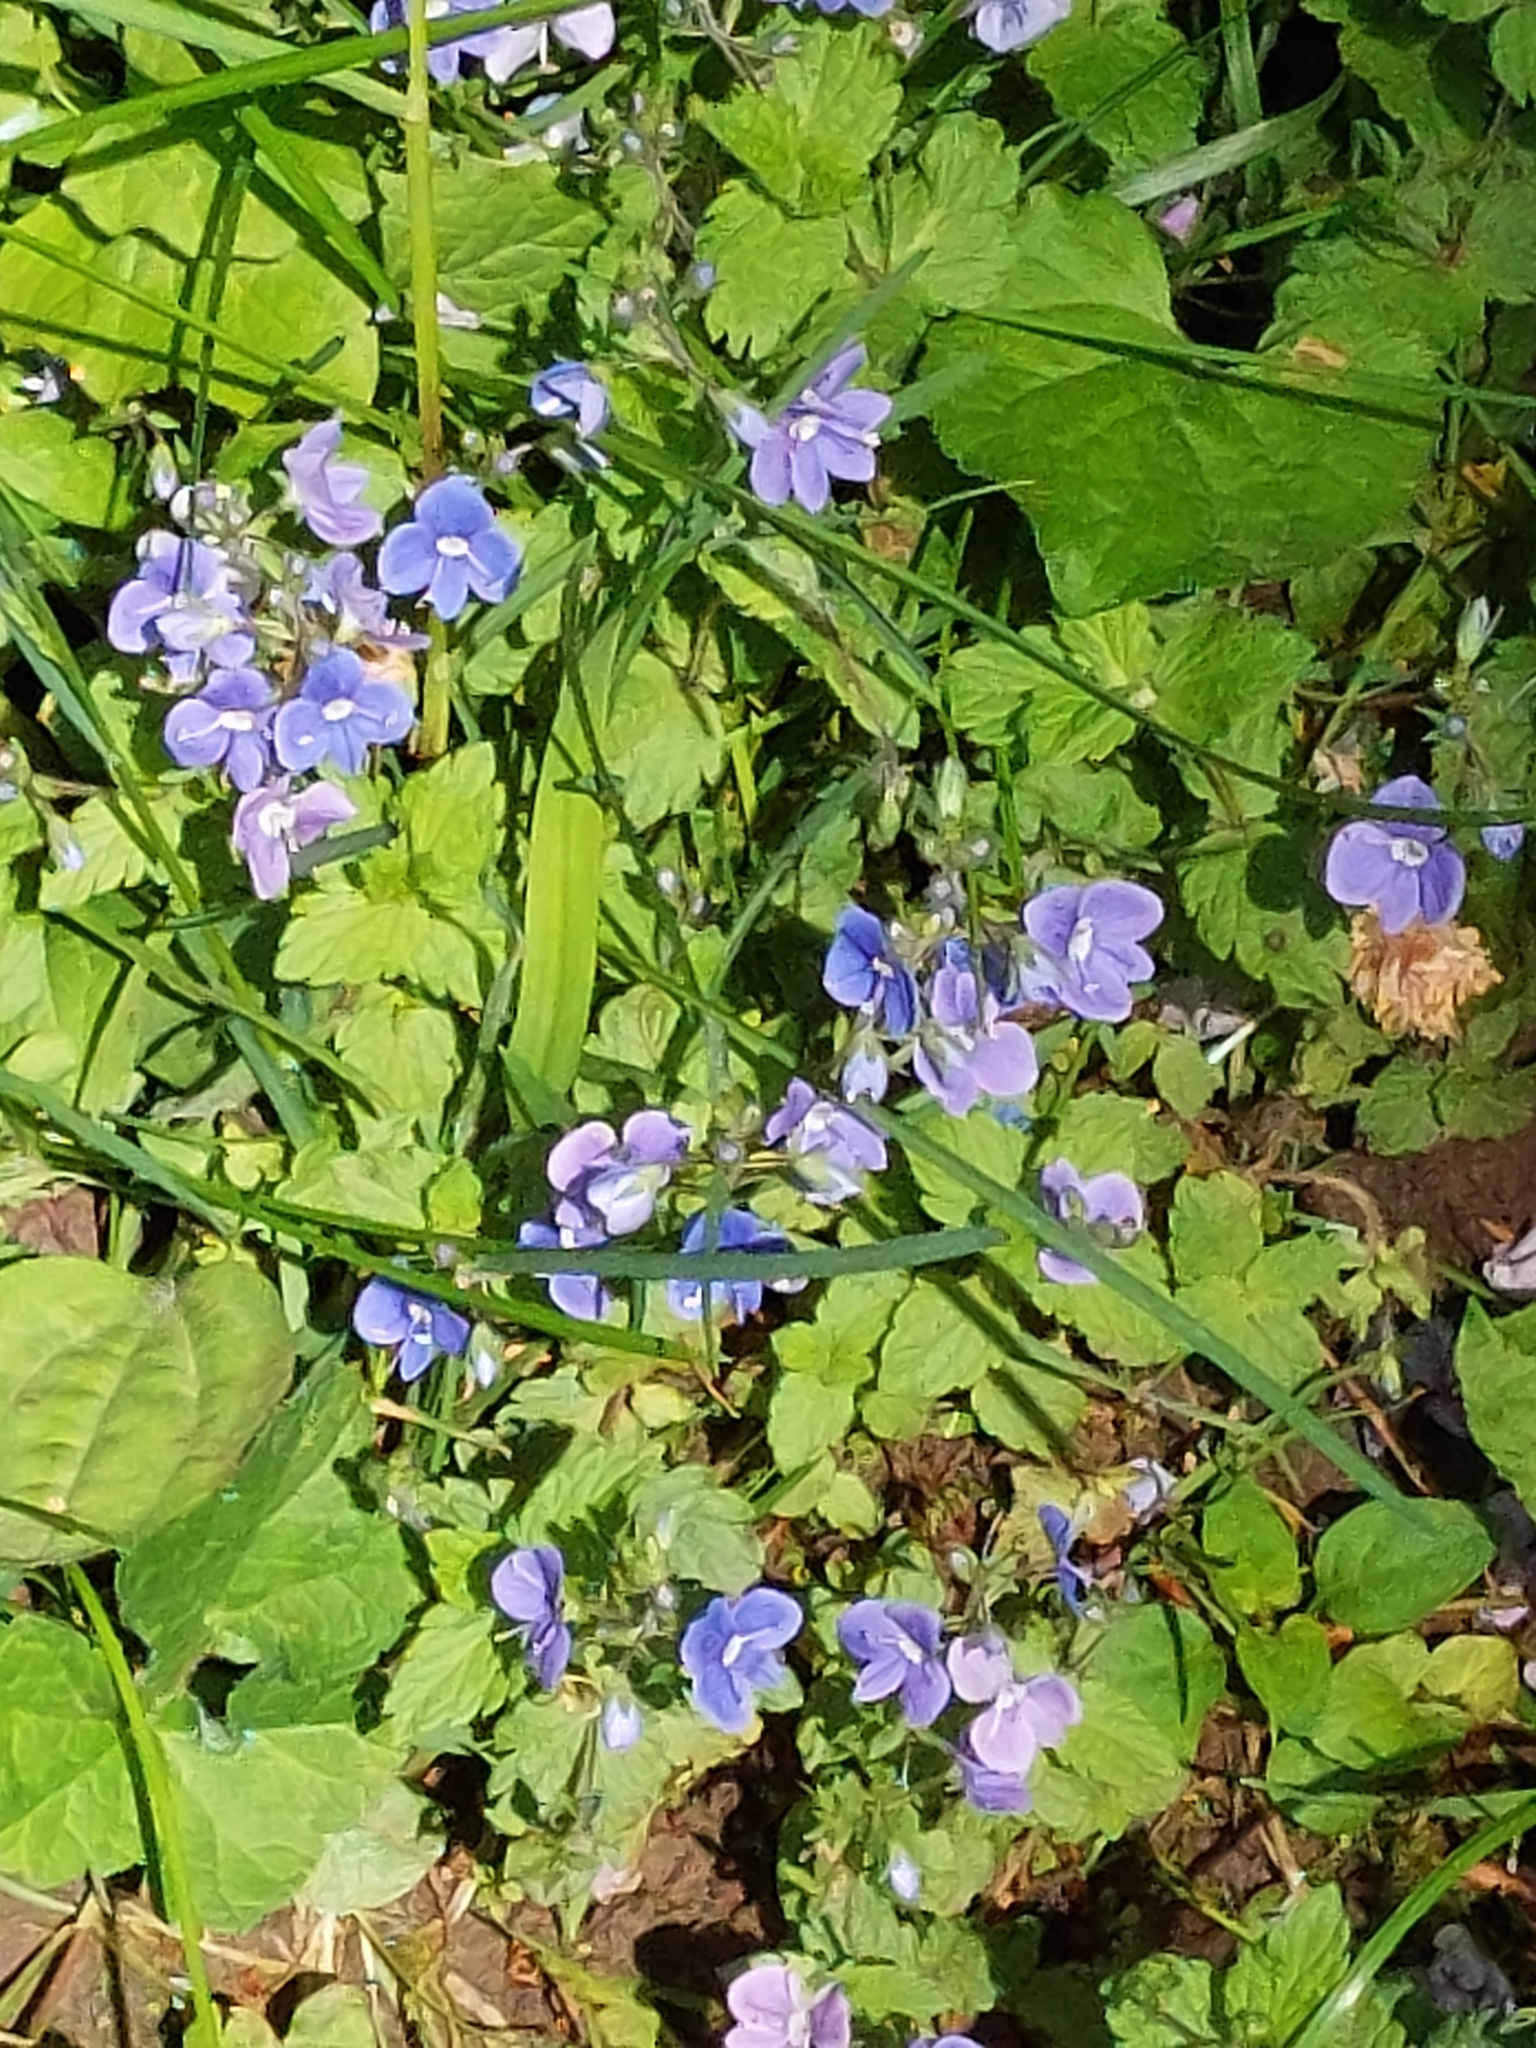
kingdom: Plantae
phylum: Tracheophyta
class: Magnoliopsida
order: Lamiales
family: Plantaginaceae
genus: Veronica
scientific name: Veronica chamaedrys
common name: Germander speedwell
